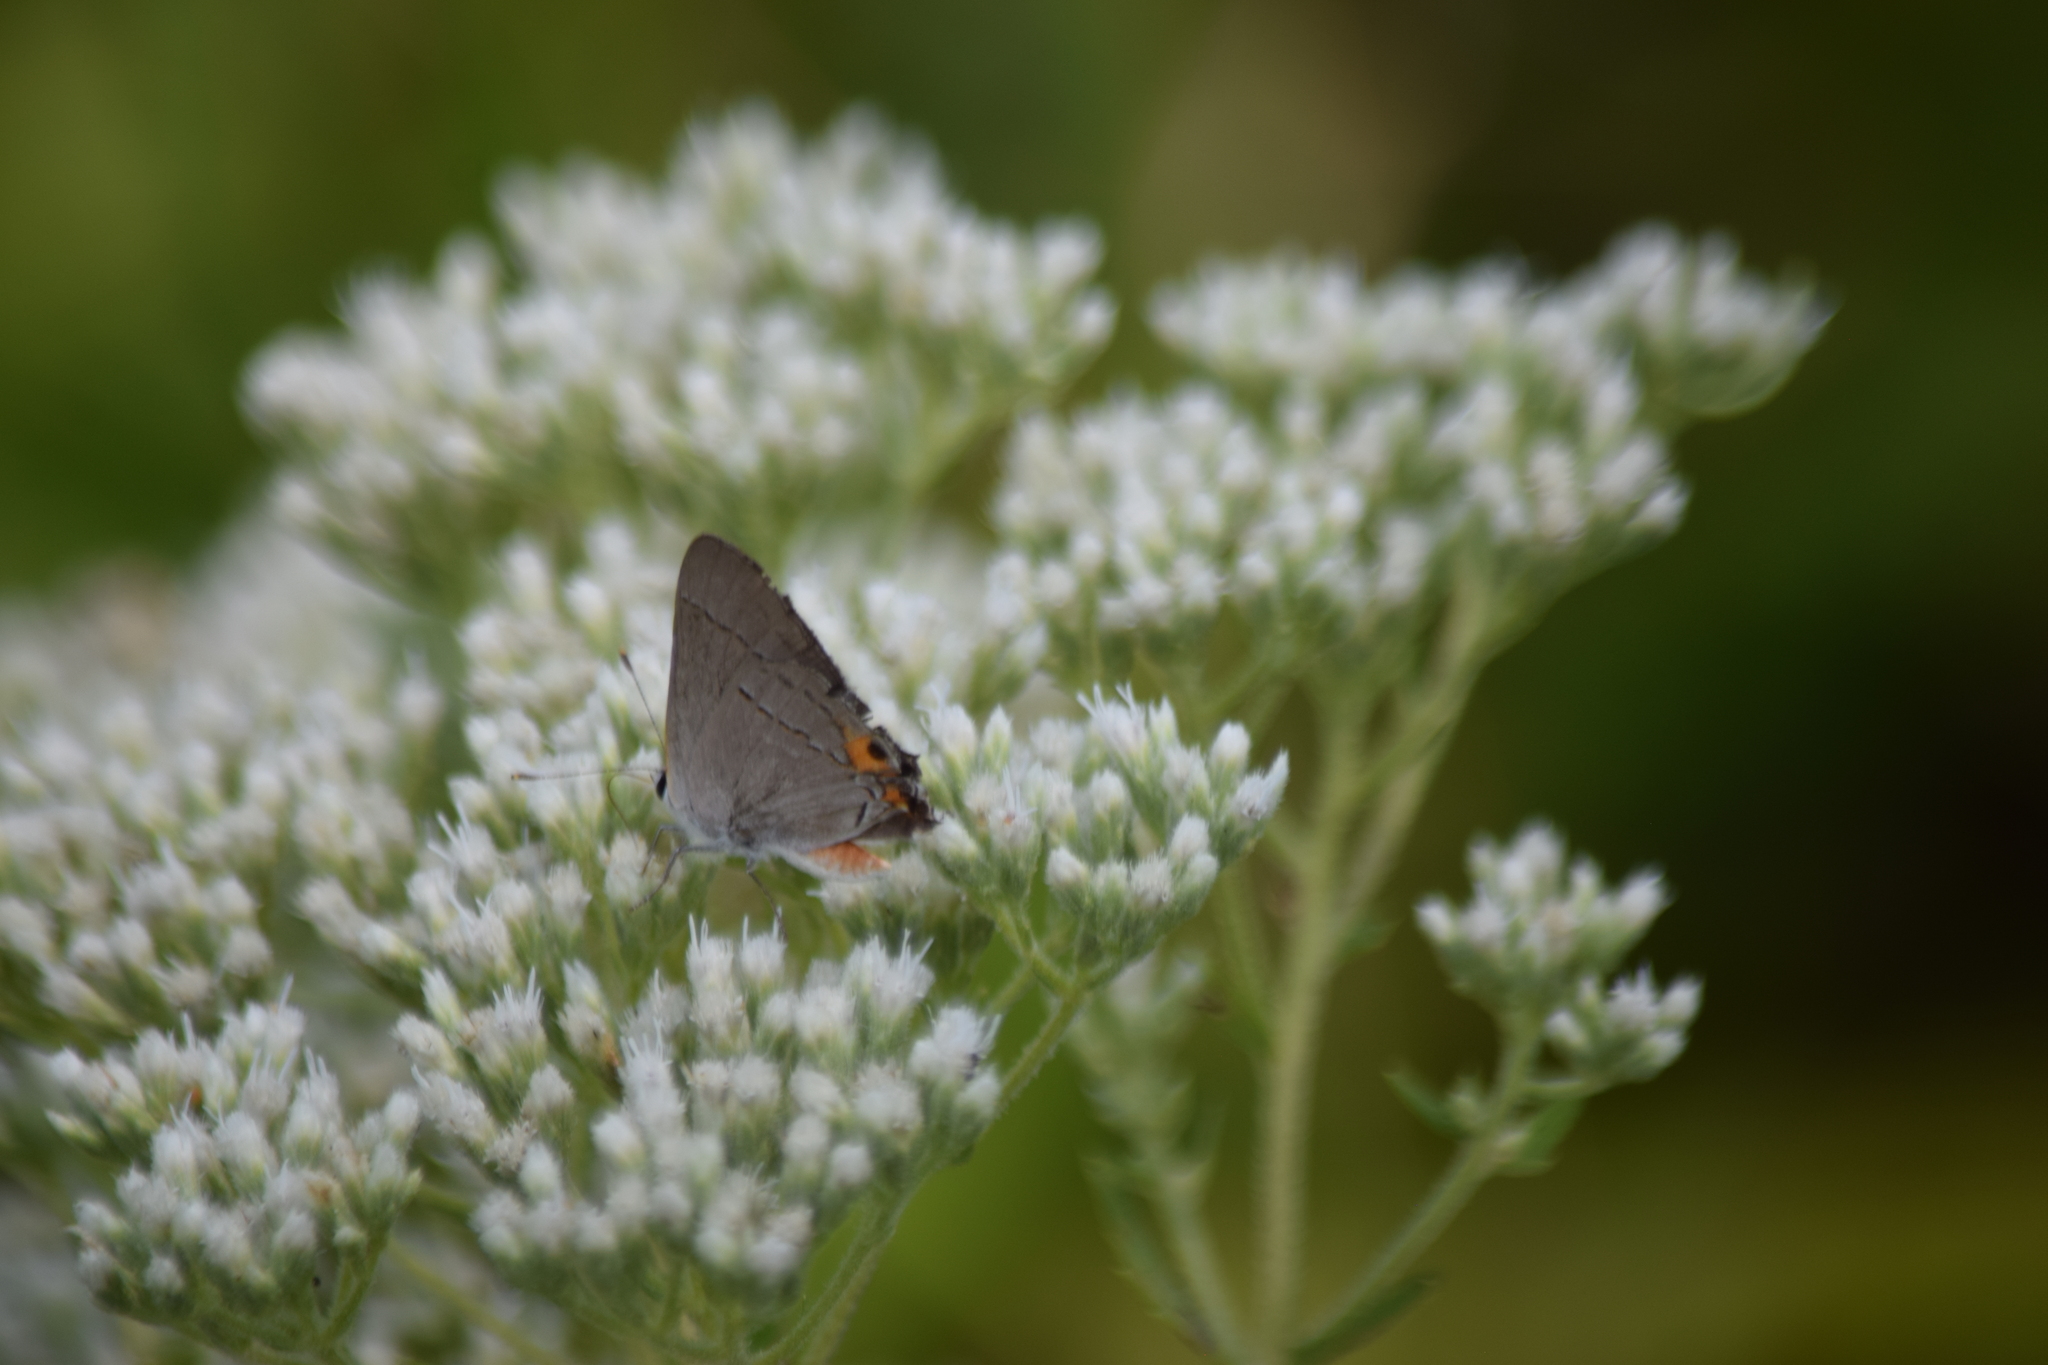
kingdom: Animalia
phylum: Arthropoda
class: Insecta
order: Lepidoptera
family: Lycaenidae
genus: Strymon
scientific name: Strymon melinus
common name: Gray hairstreak
